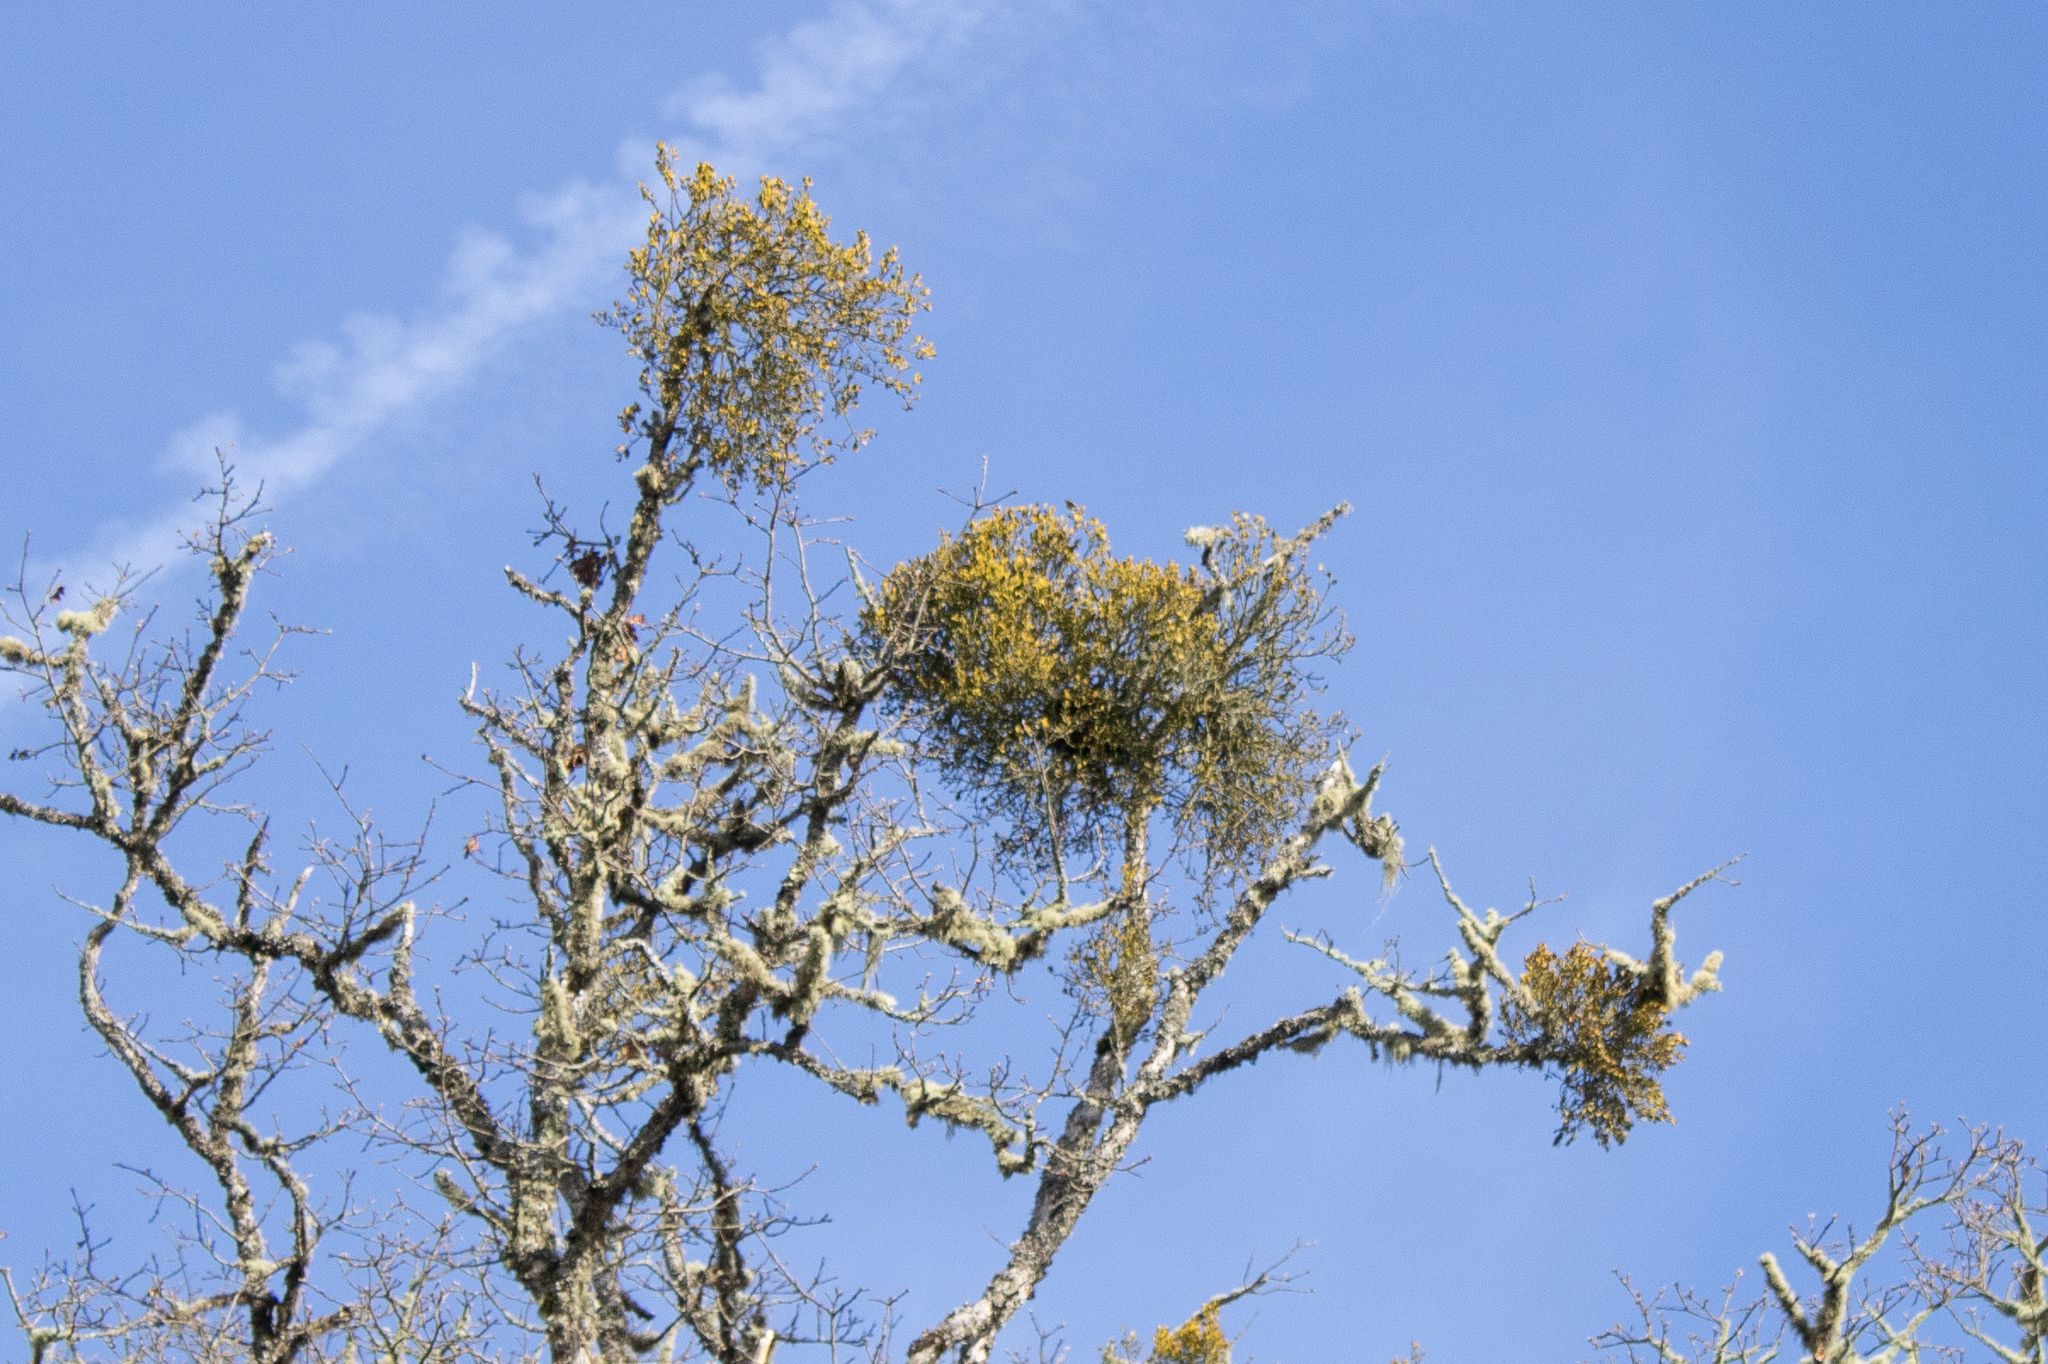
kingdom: Plantae
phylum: Tracheophyta
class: Magnoliopsida
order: Santalales
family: Viscaceae
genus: Phoradendron
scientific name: Phoradendron leucarpum
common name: Pacific mistletoe
